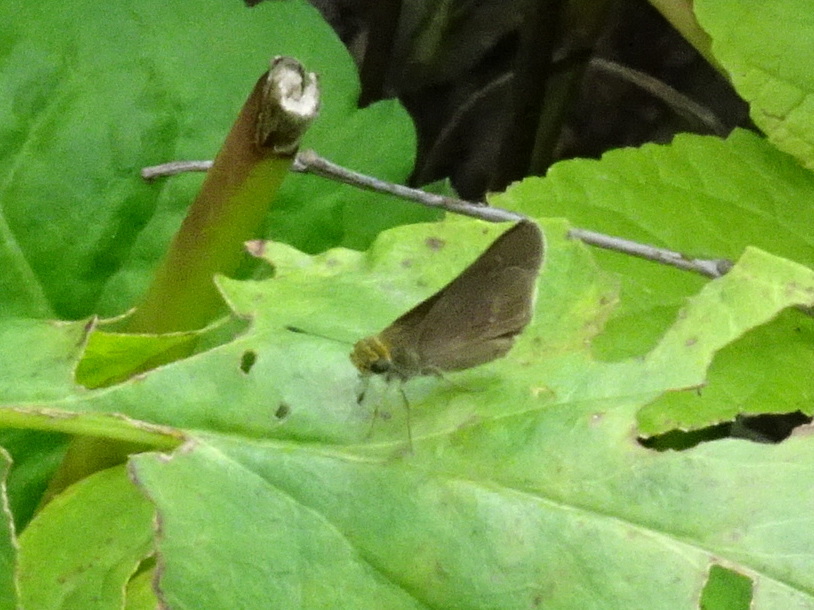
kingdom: Animalia
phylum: Arthropoda
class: Insecta
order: Lepidoptera
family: Hesperiidae
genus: Euphyes
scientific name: Euphyes vestris
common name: Dun skipper
